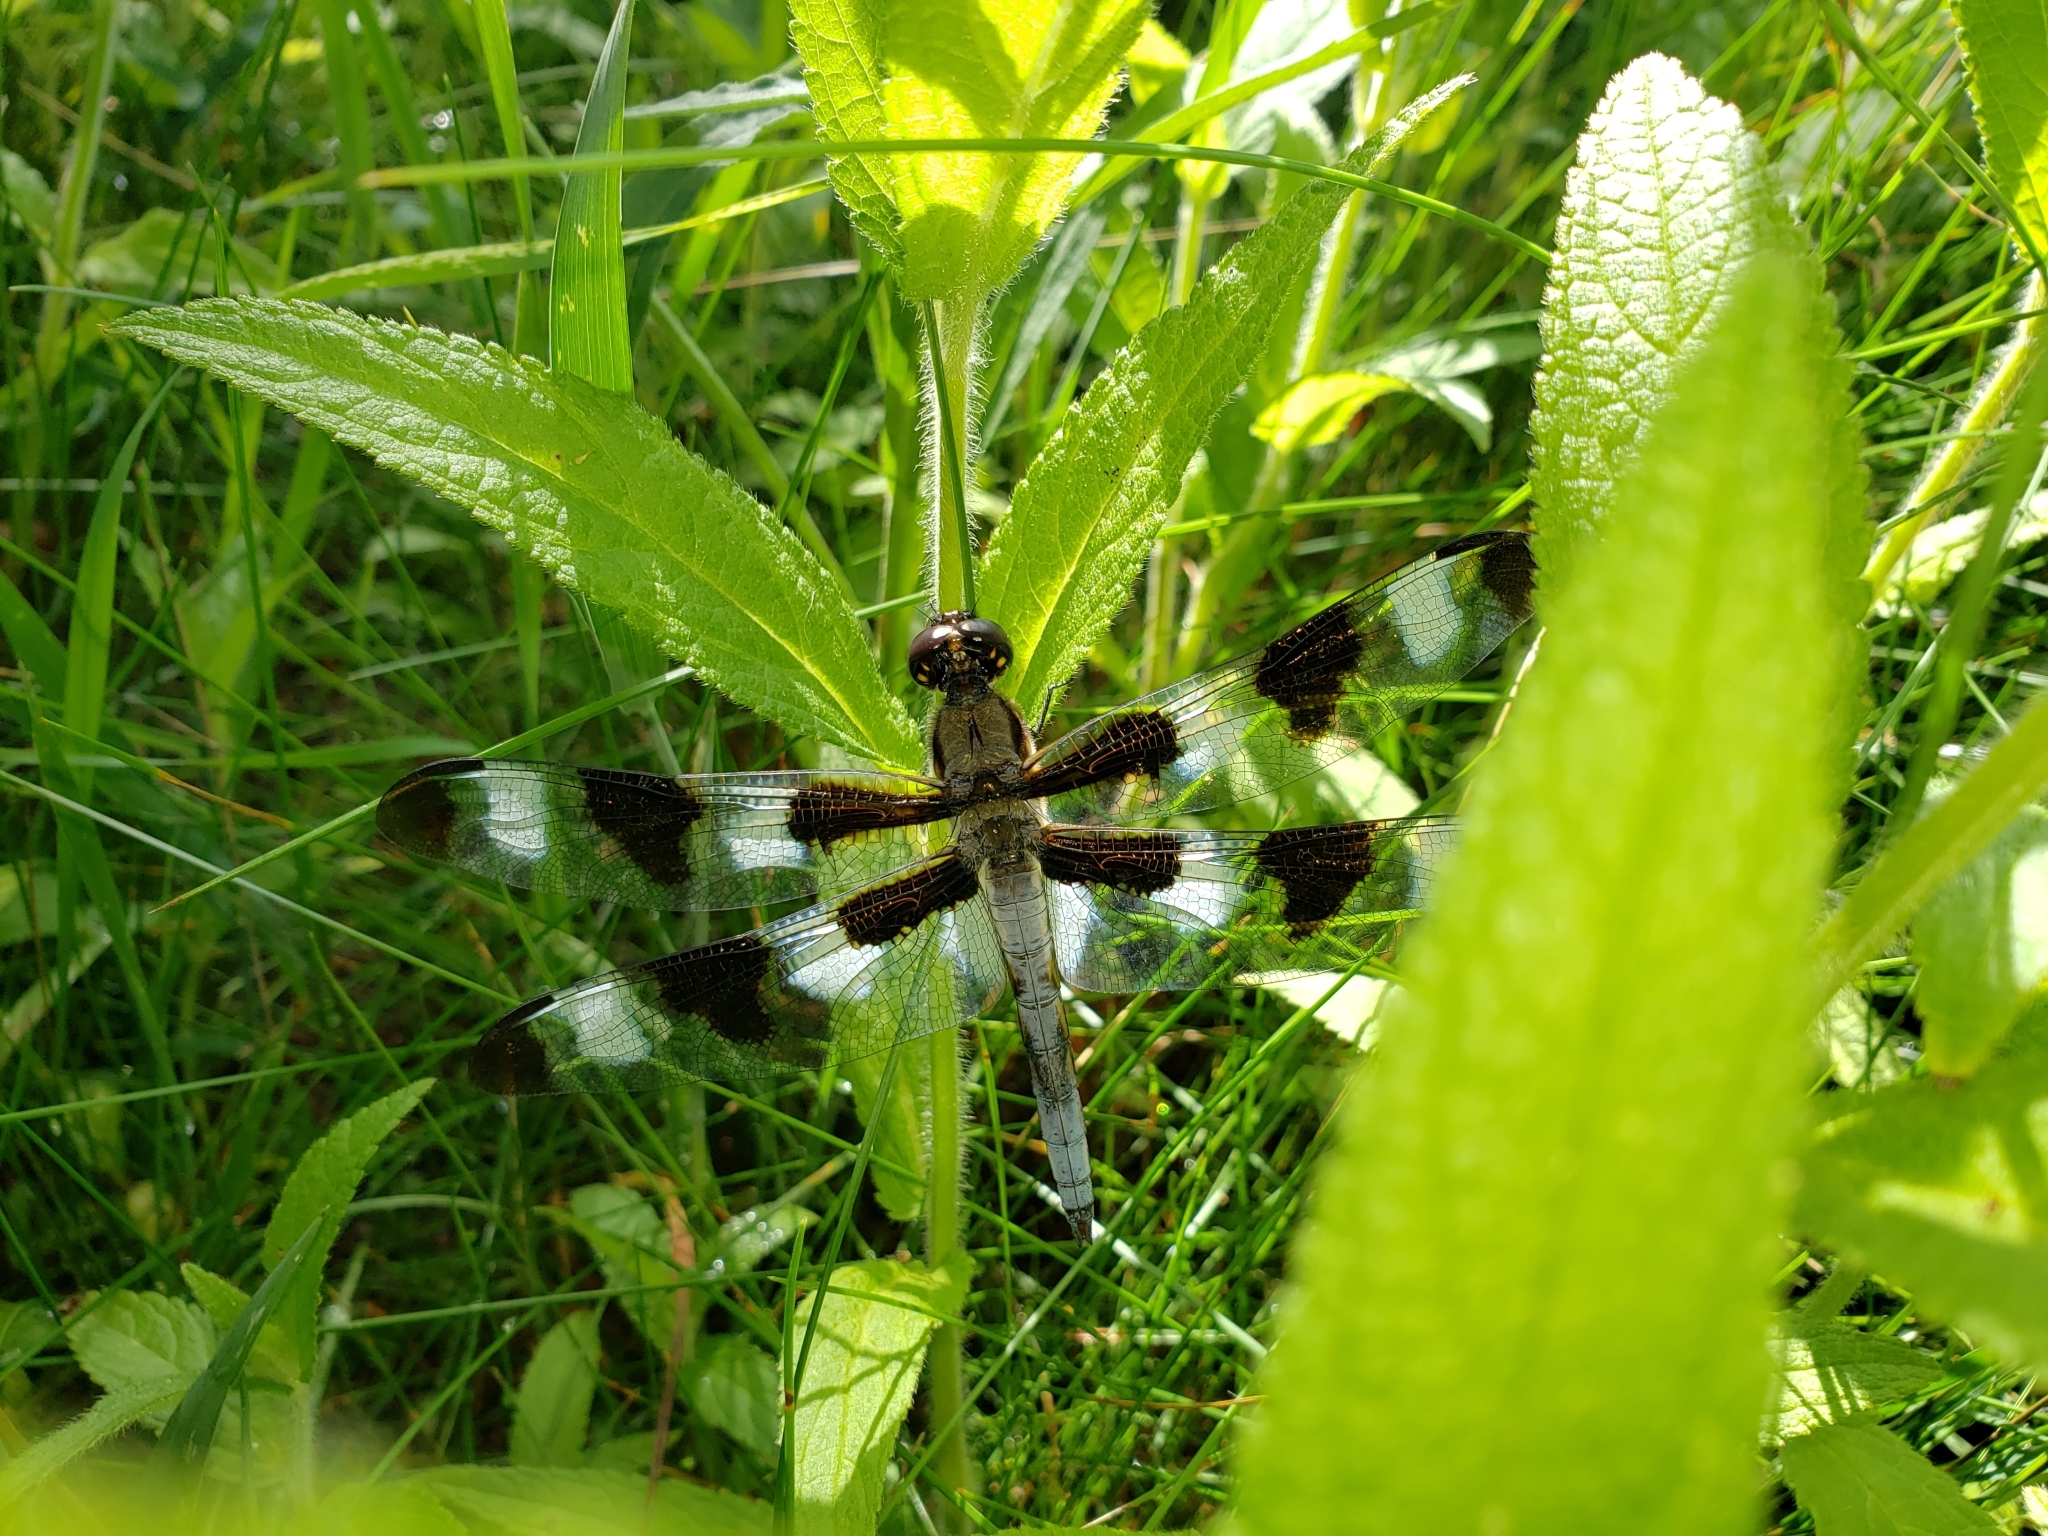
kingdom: Animalia
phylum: Arthropoda
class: Insecta
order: Odonata
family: Libellulidae
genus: Libellula
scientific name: Libellula pulchella
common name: Twelve-spotted skimmer
